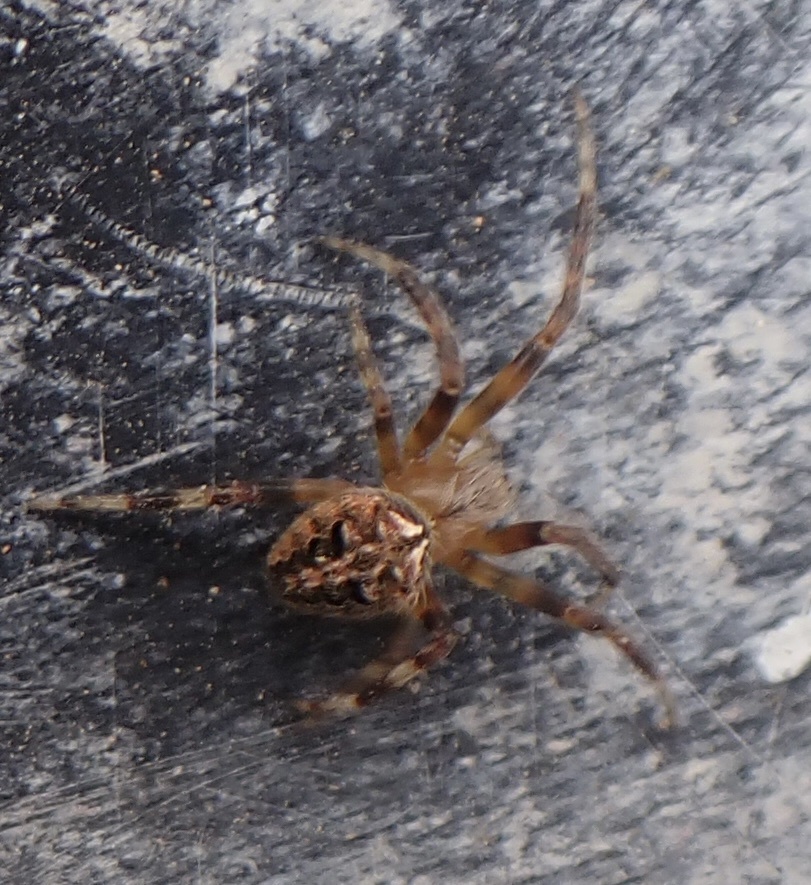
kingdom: Animalia
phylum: Arthropoda
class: Arachnida
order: Araneae
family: Araneidae
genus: Neoscona
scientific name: Neoscona arabesca
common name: Orb weavers
